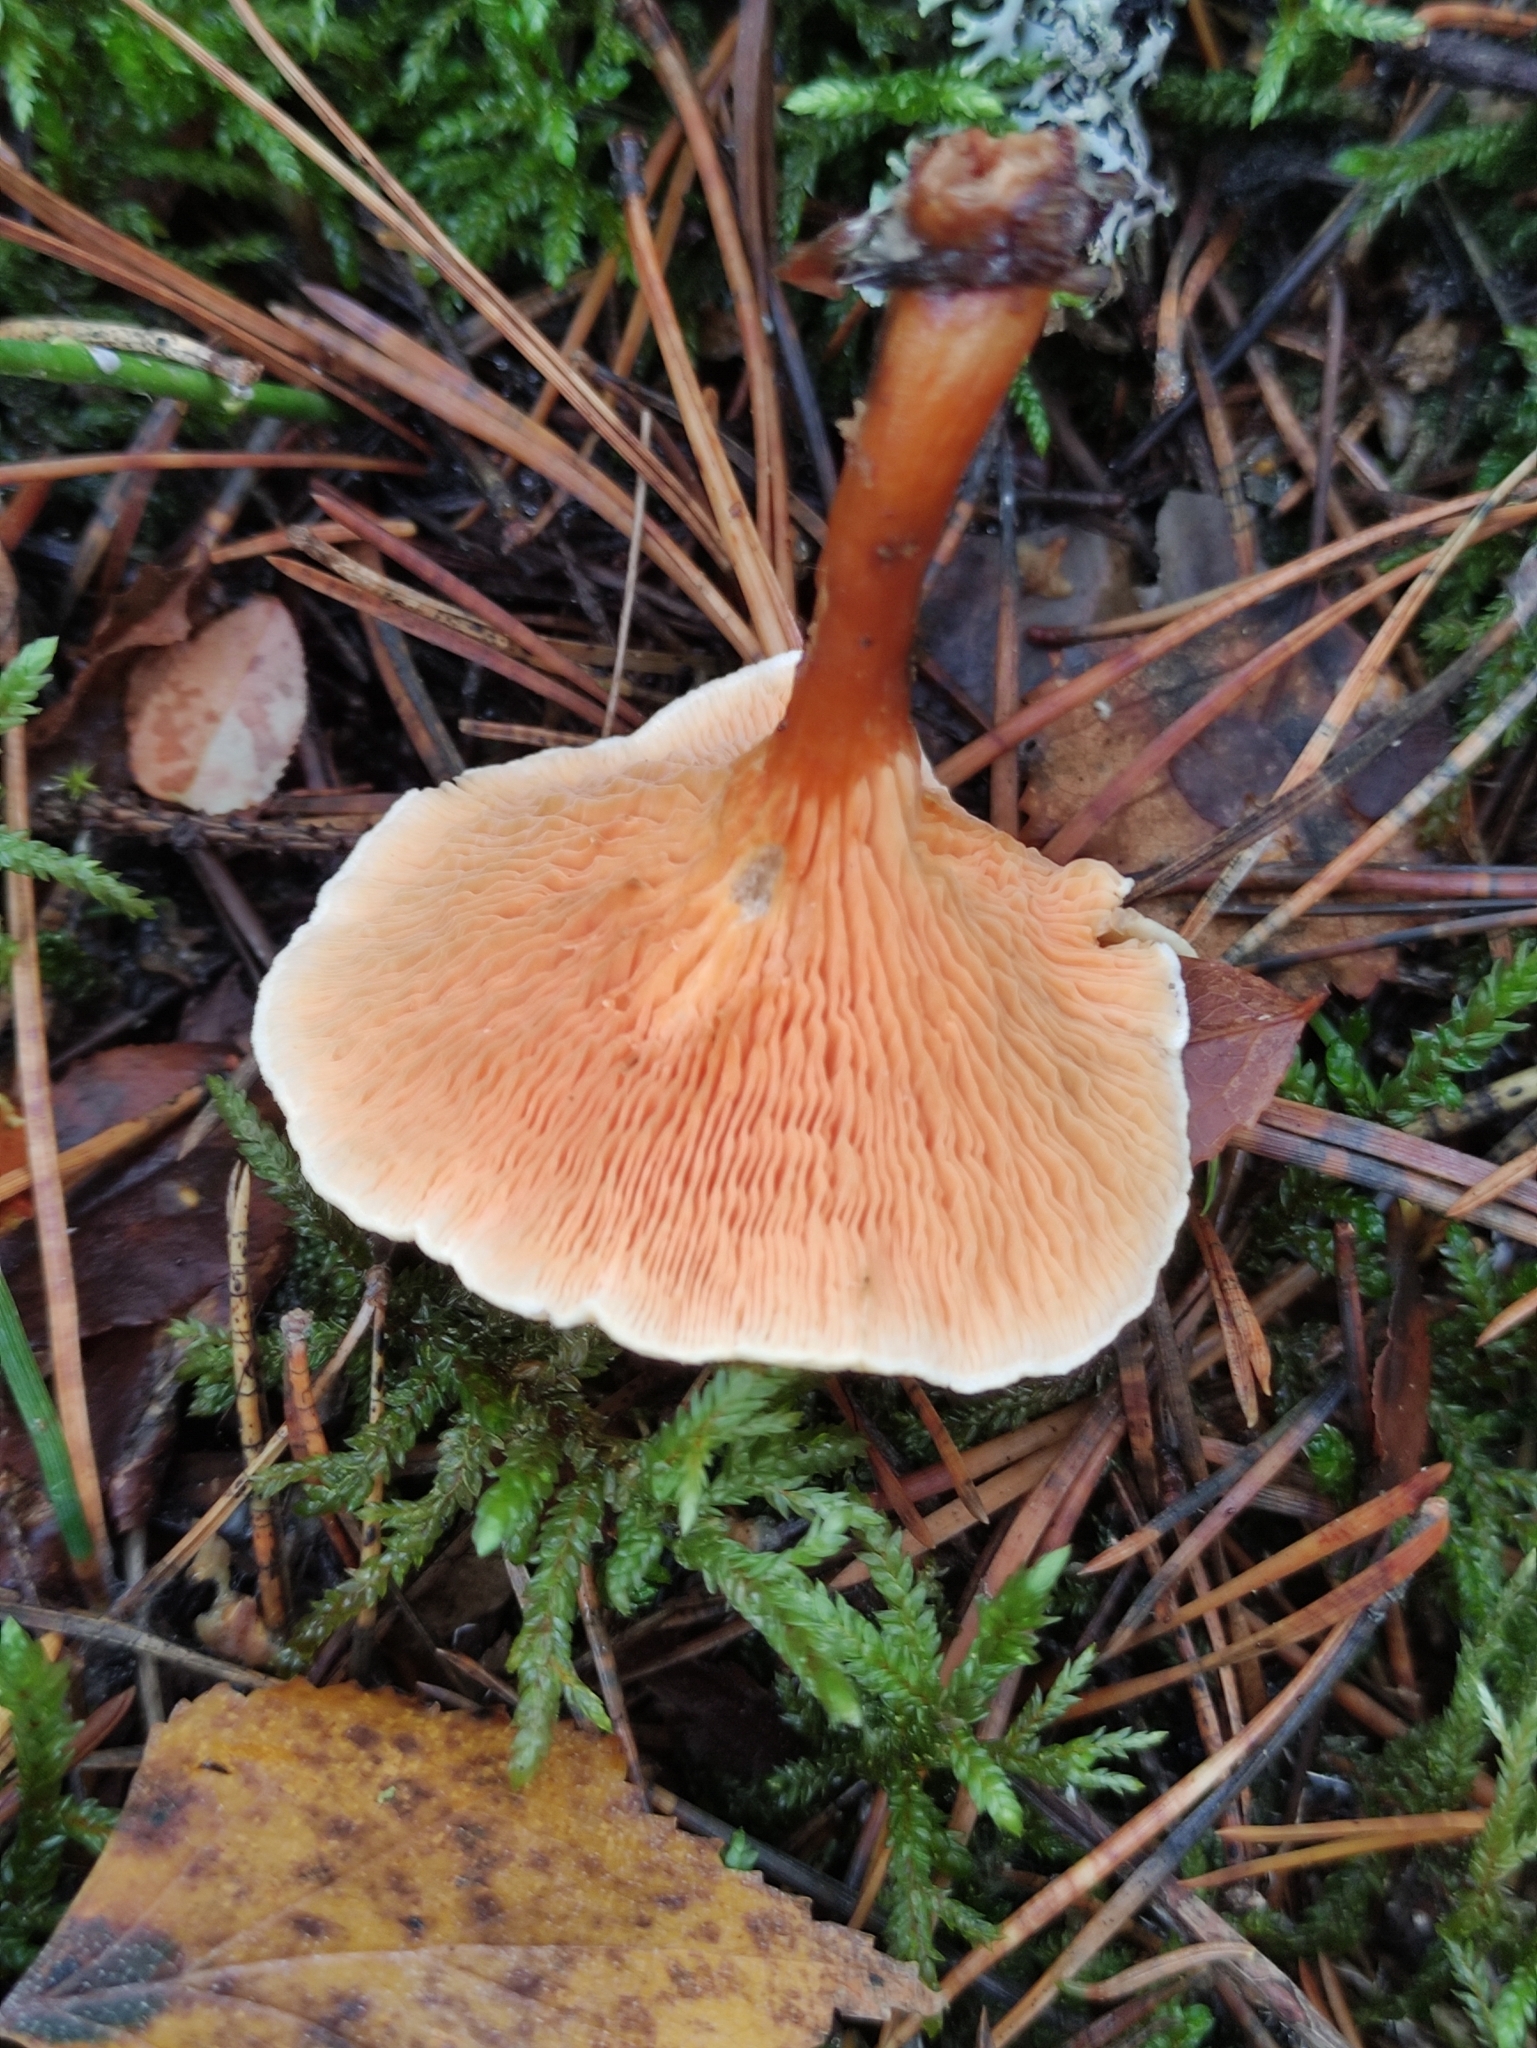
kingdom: Fungi
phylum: Basidiomycota
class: Agaricomycetes
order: Boletales
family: Hygrophoropsidaceae
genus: Hygrophoropsis
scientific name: Hygrophoropsis aurantiaca
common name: False chanterelle
